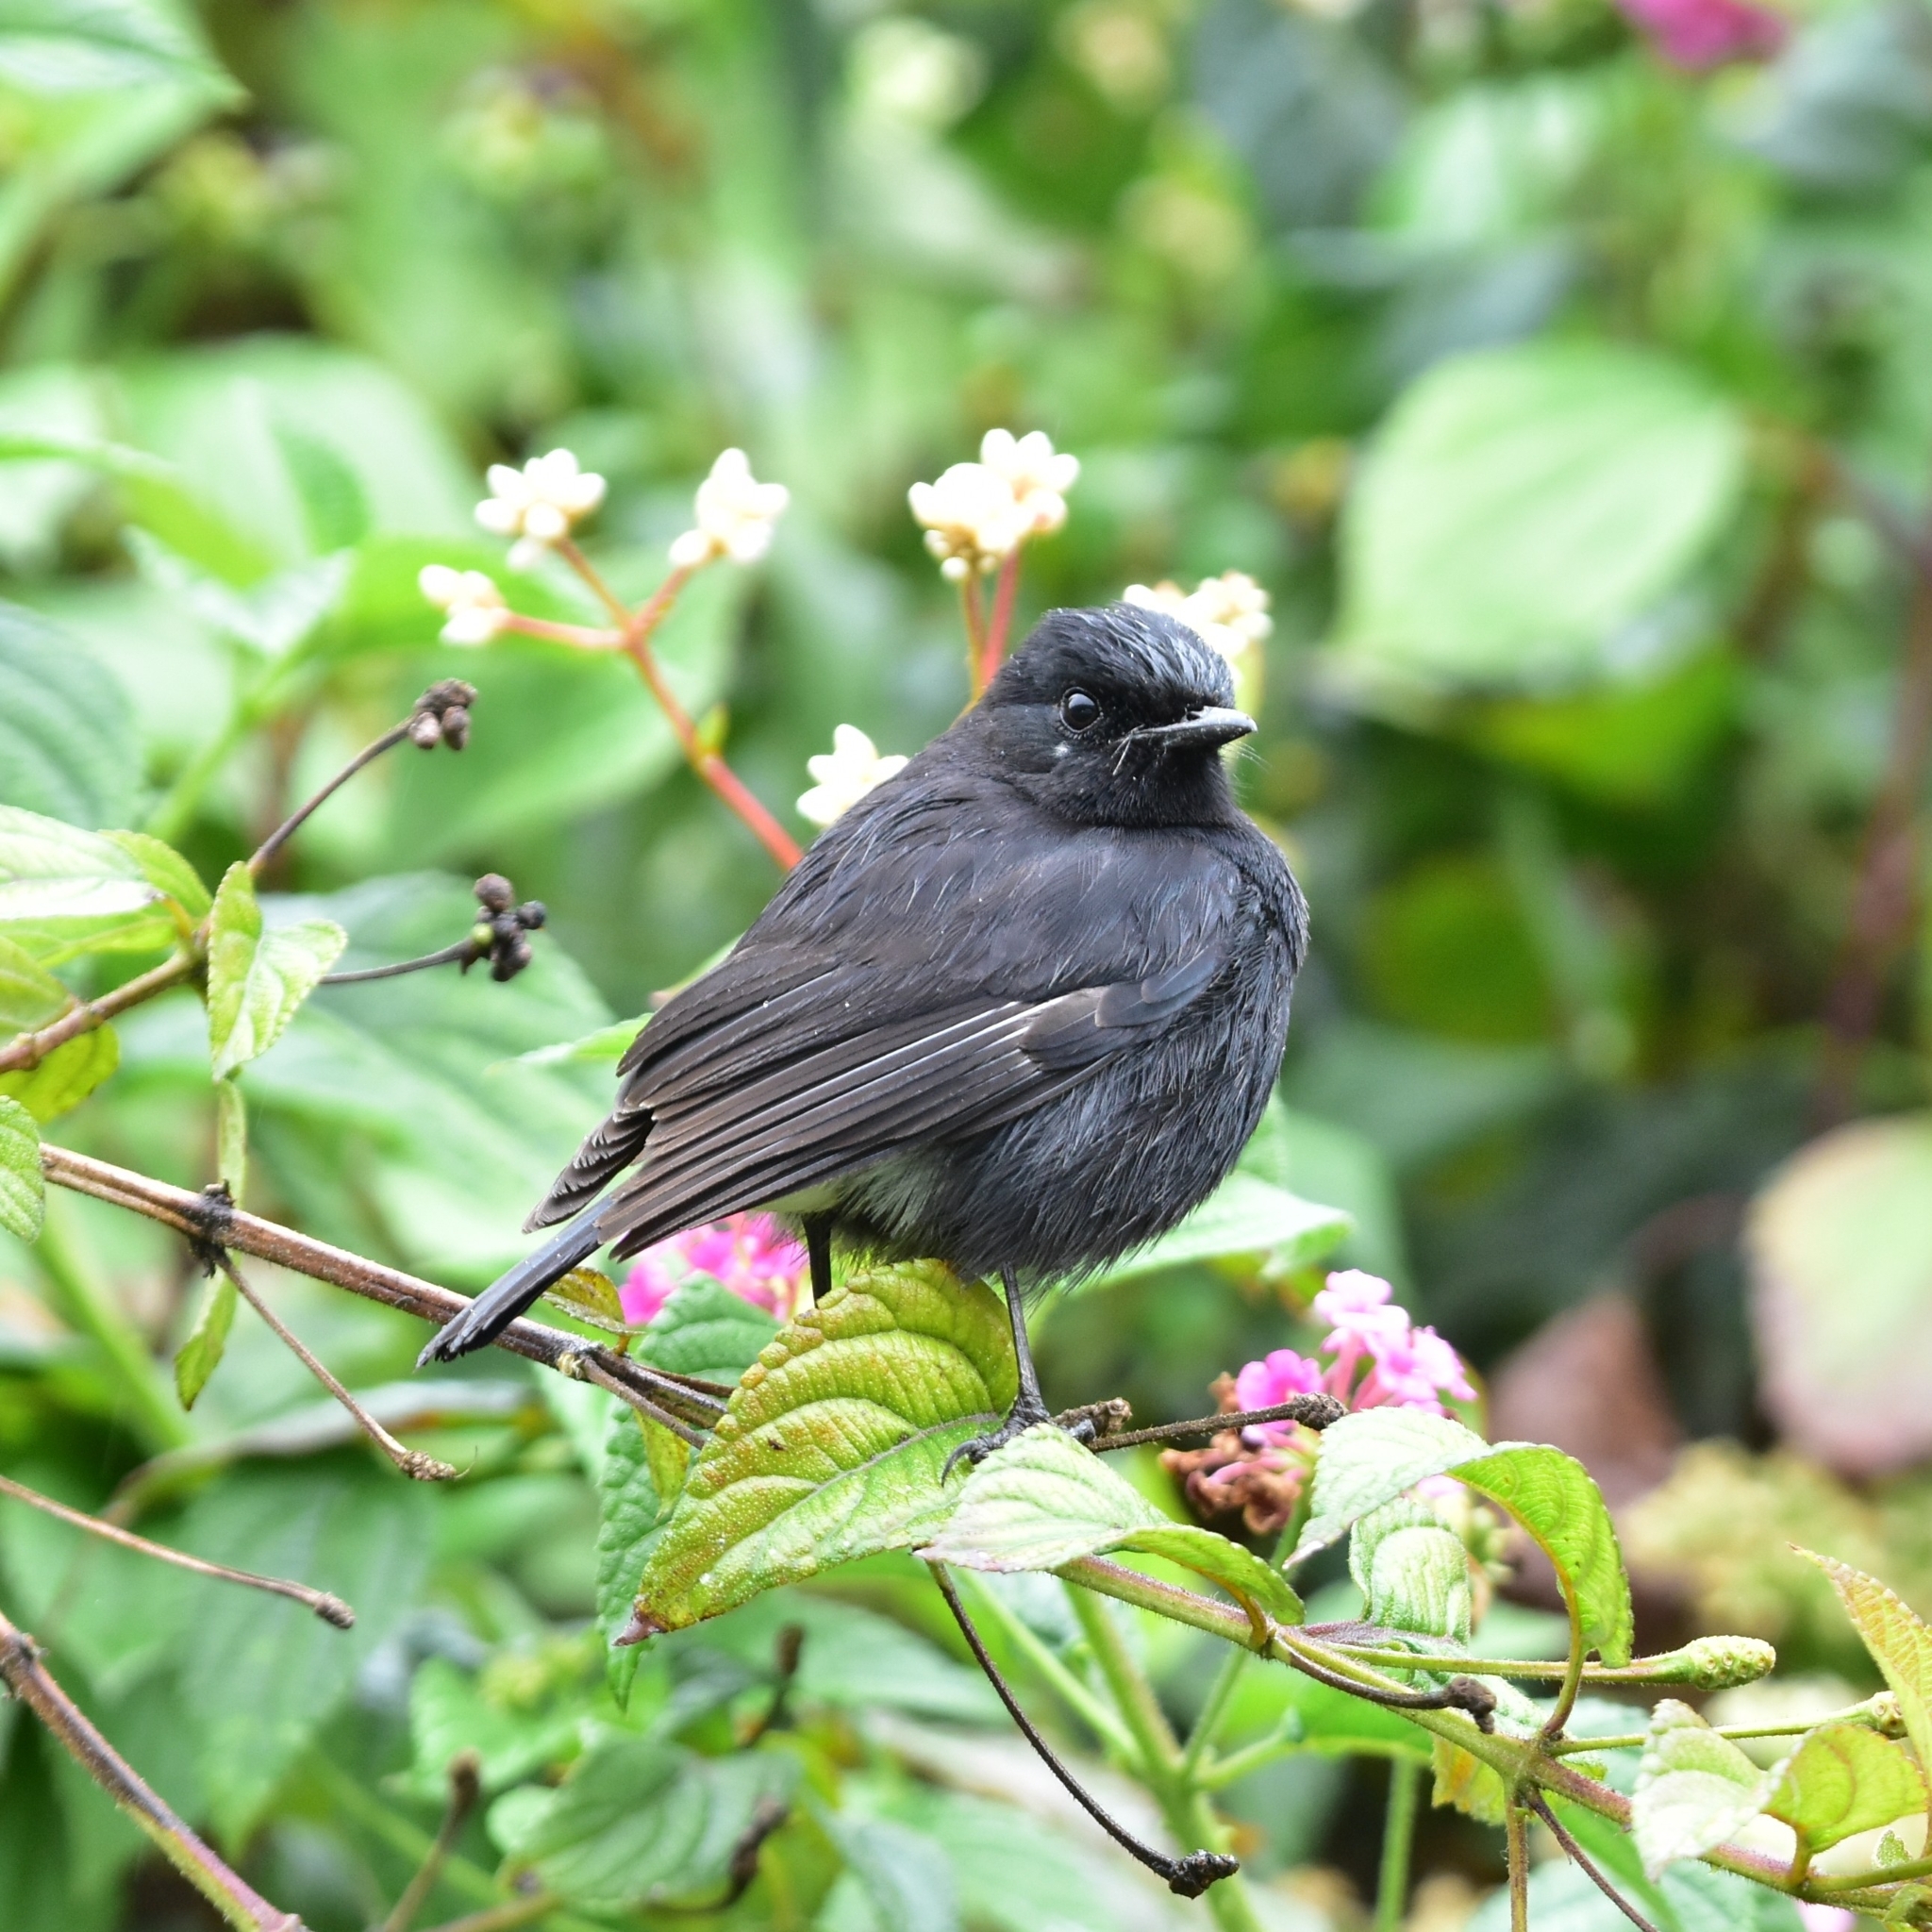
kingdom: Animalia
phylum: Chordata
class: Aves
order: Passeriformes
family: Muscicapidae
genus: Saxicola
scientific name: Saxicola caprata
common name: Pied bush chat
